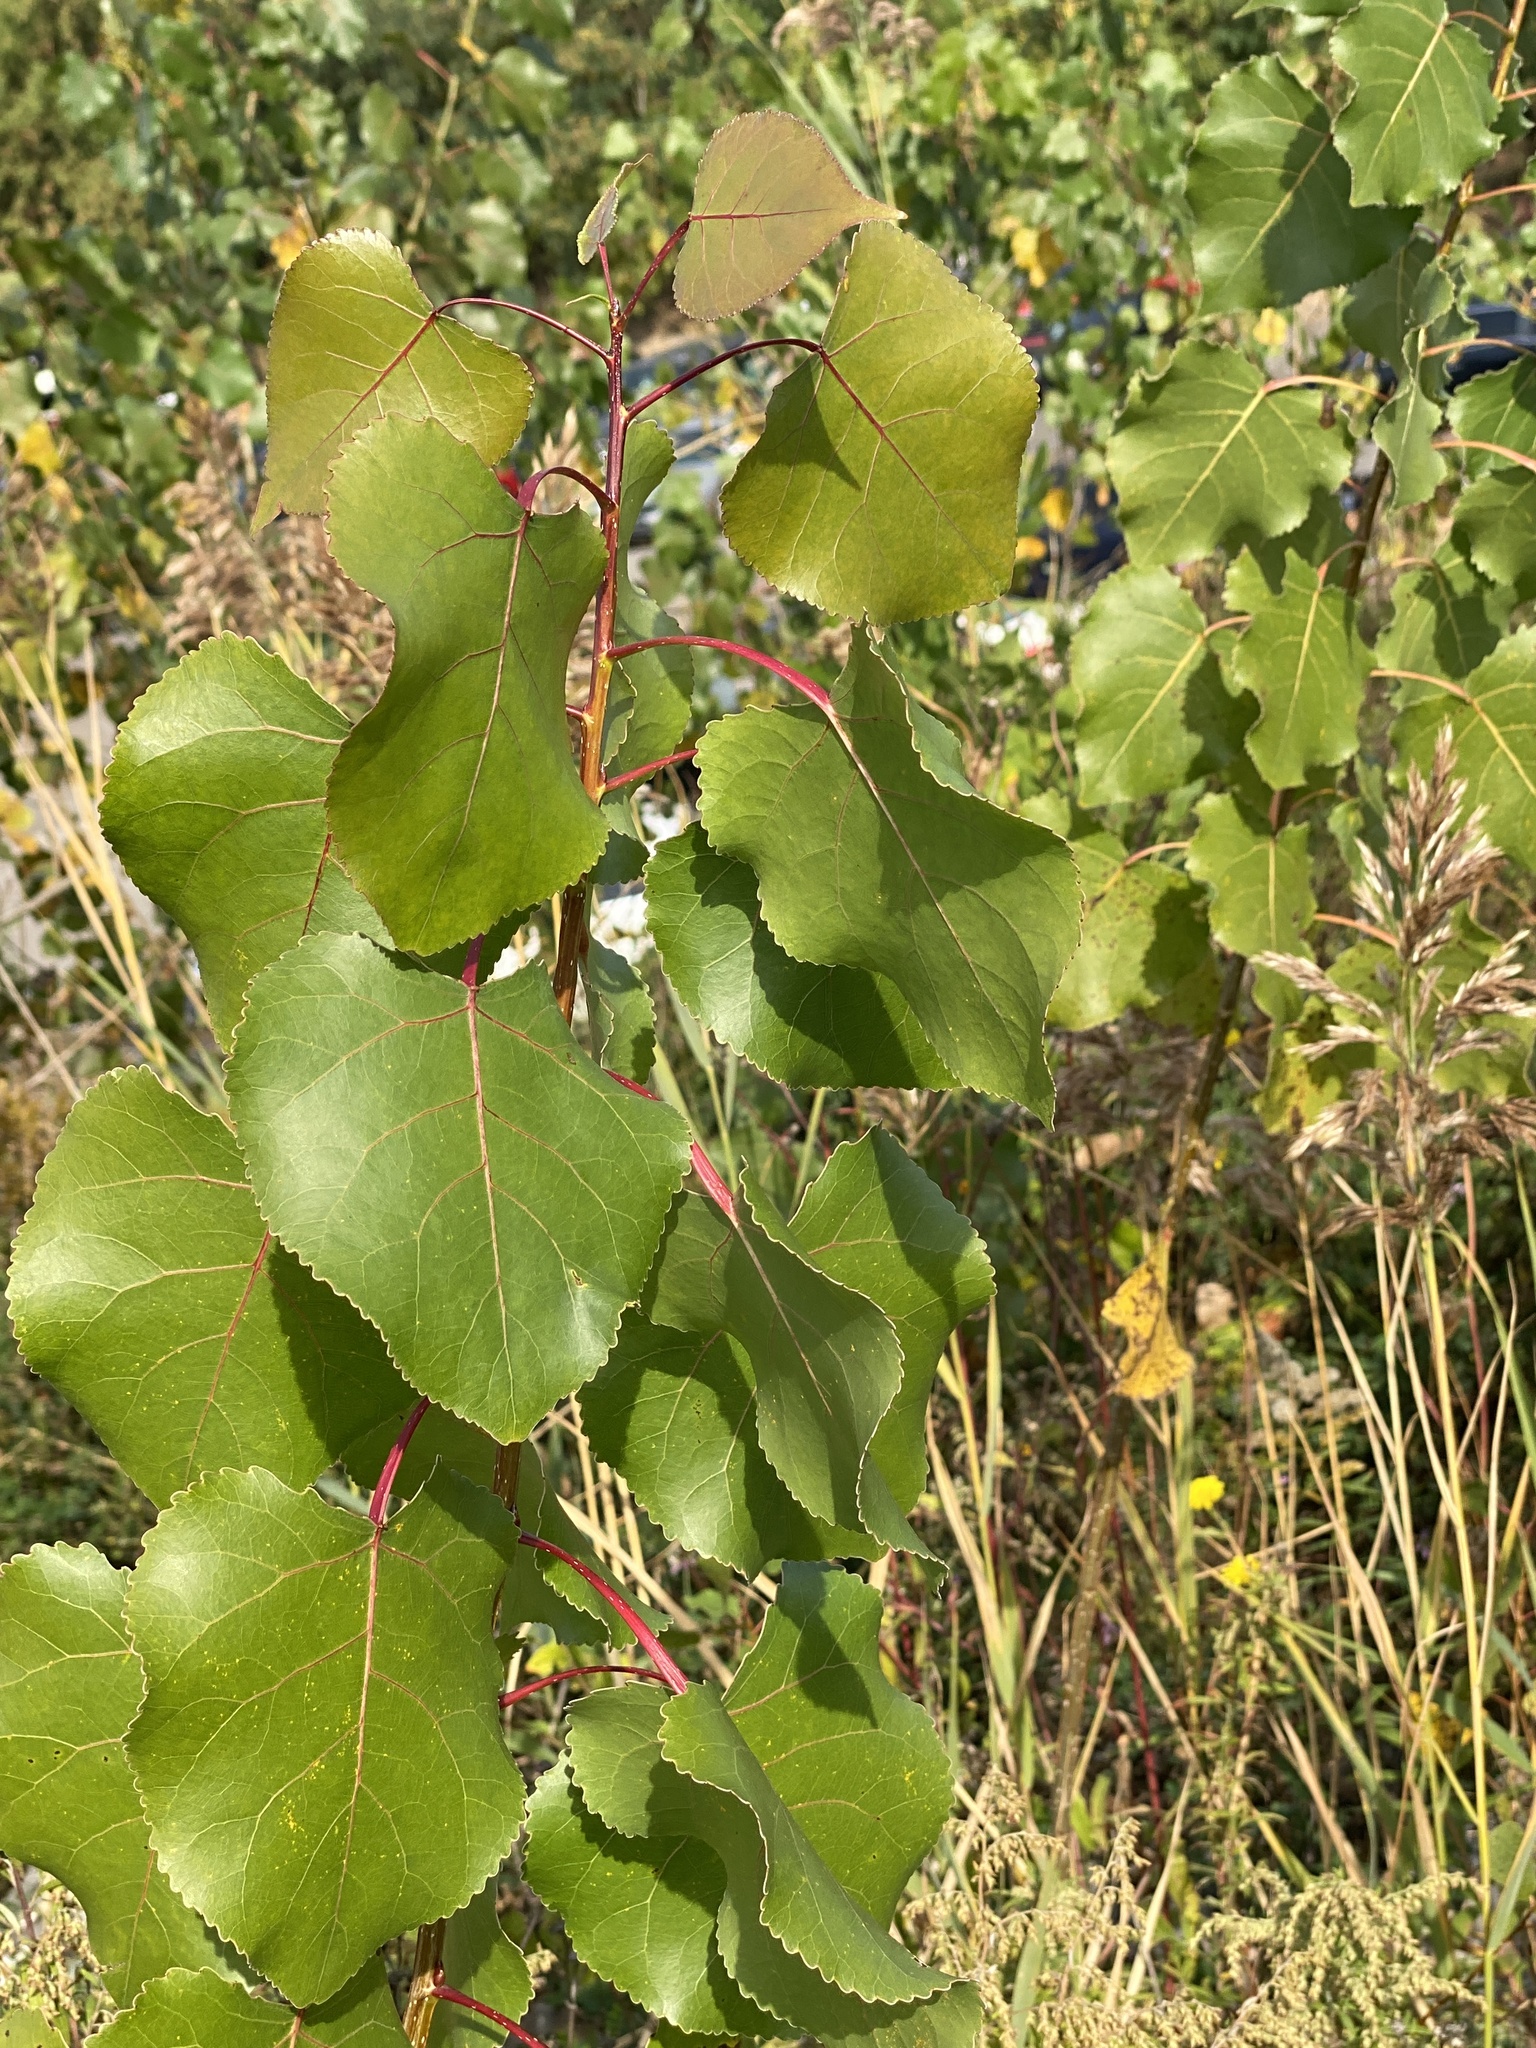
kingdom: Plantae
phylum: Tracheophyta
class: Magnoliopsida
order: Malpighiales
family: Salicaceae
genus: Populus
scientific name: Populus deltoides
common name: Eastern cottonwood
